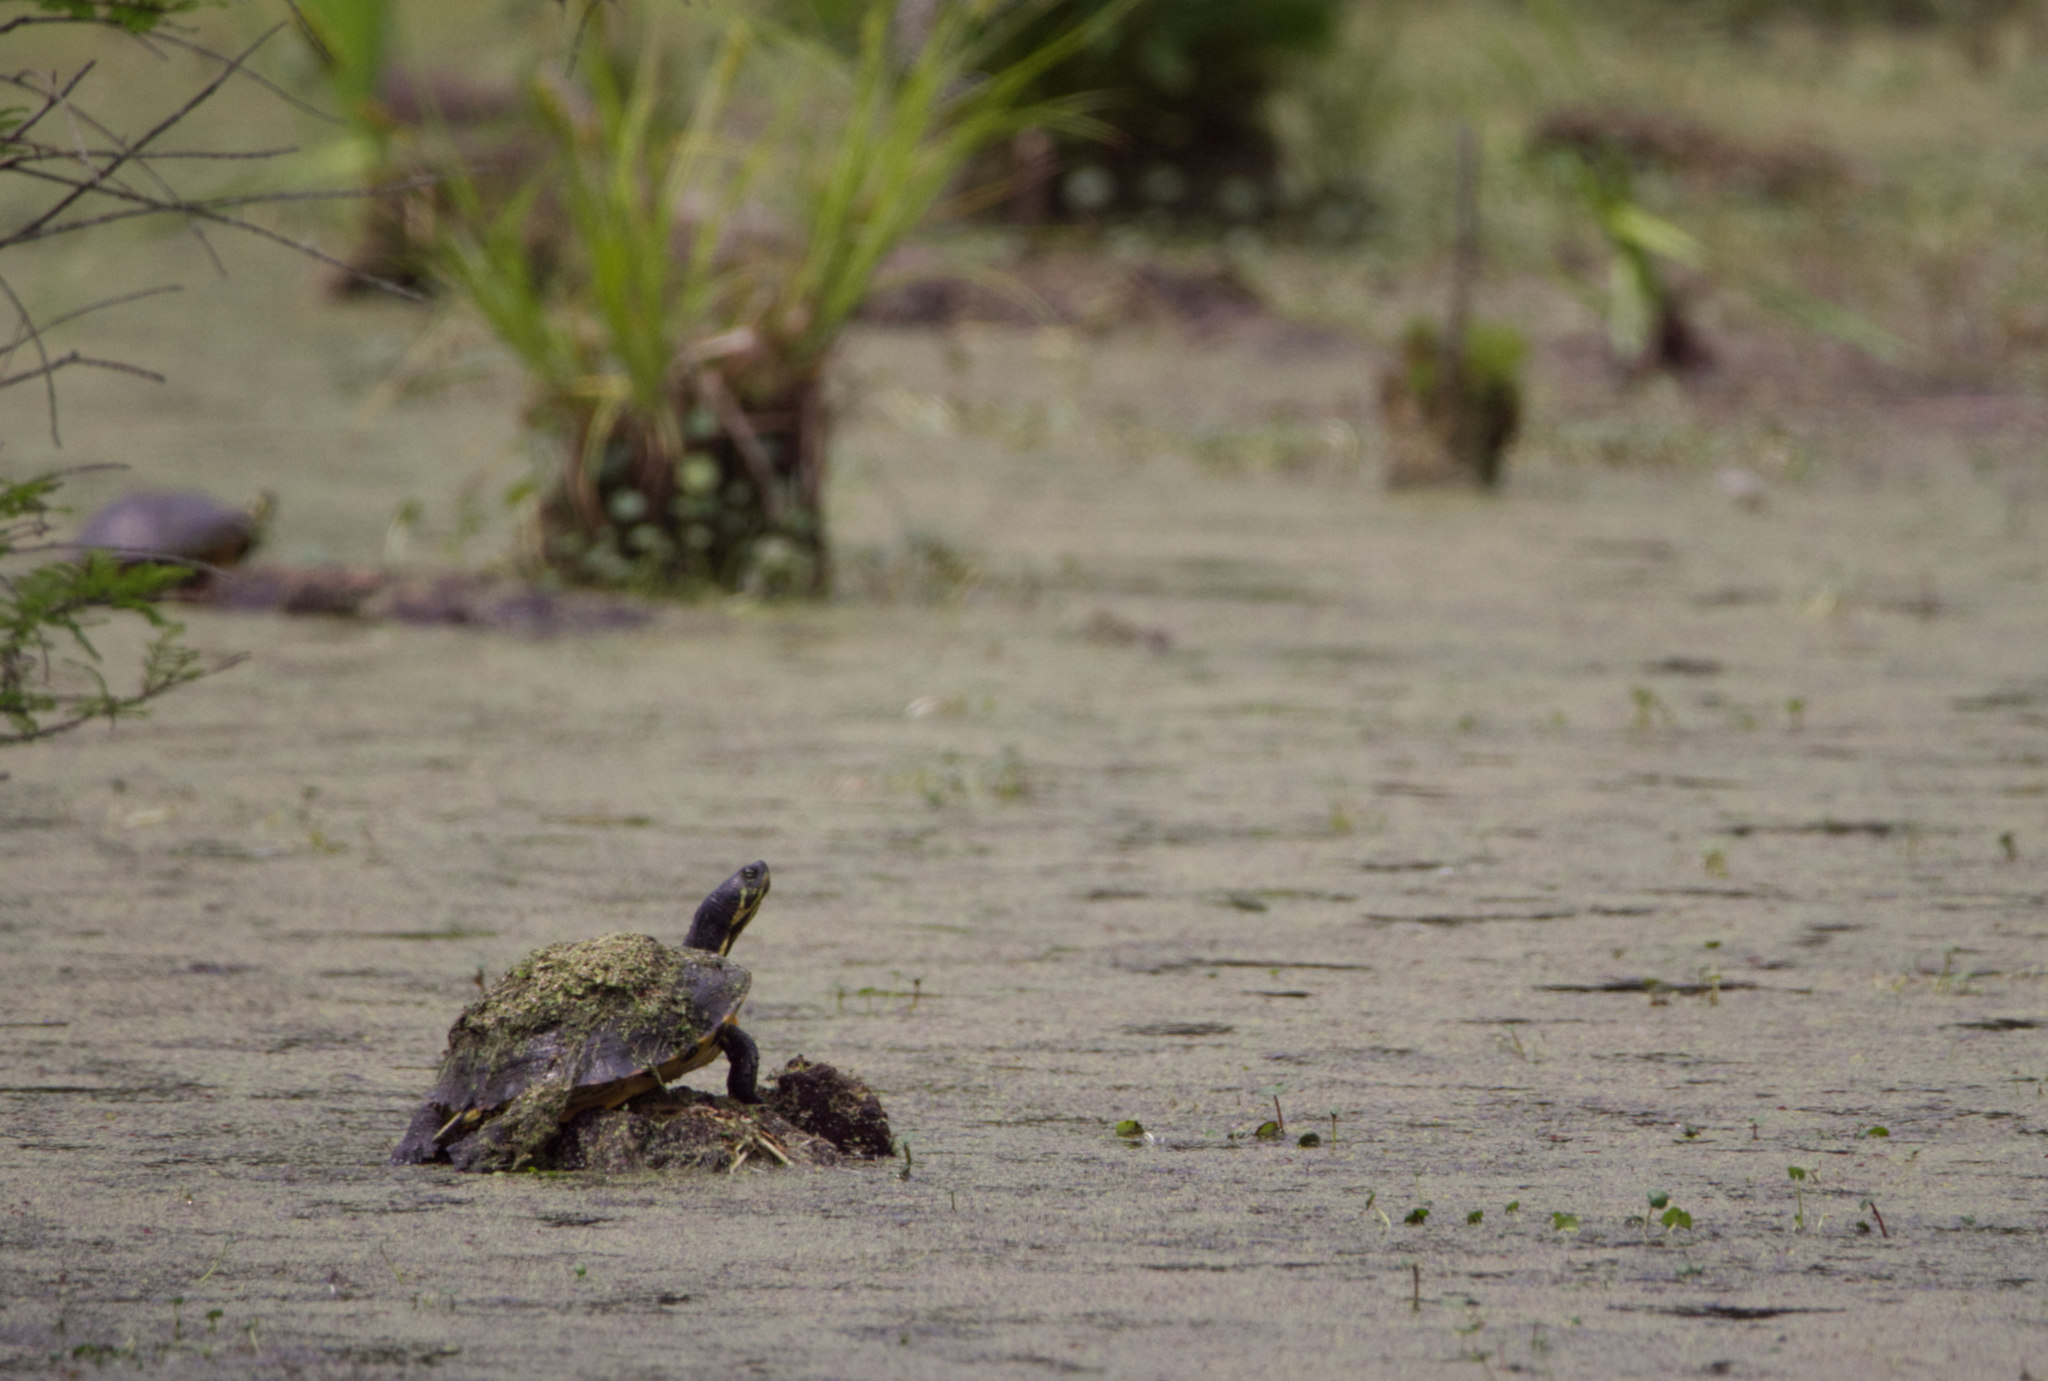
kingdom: Animalia
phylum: Chordata
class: Testudines
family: Emydidae
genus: Trachemys
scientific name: Trachemys scripta
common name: Slider
